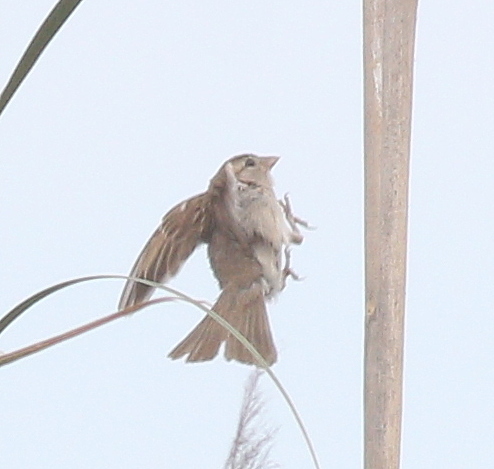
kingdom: Animalia
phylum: Chordata
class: Aves
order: Passeriformes
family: Passeridae
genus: Passer
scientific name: Passer domesticus
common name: House sparrow
